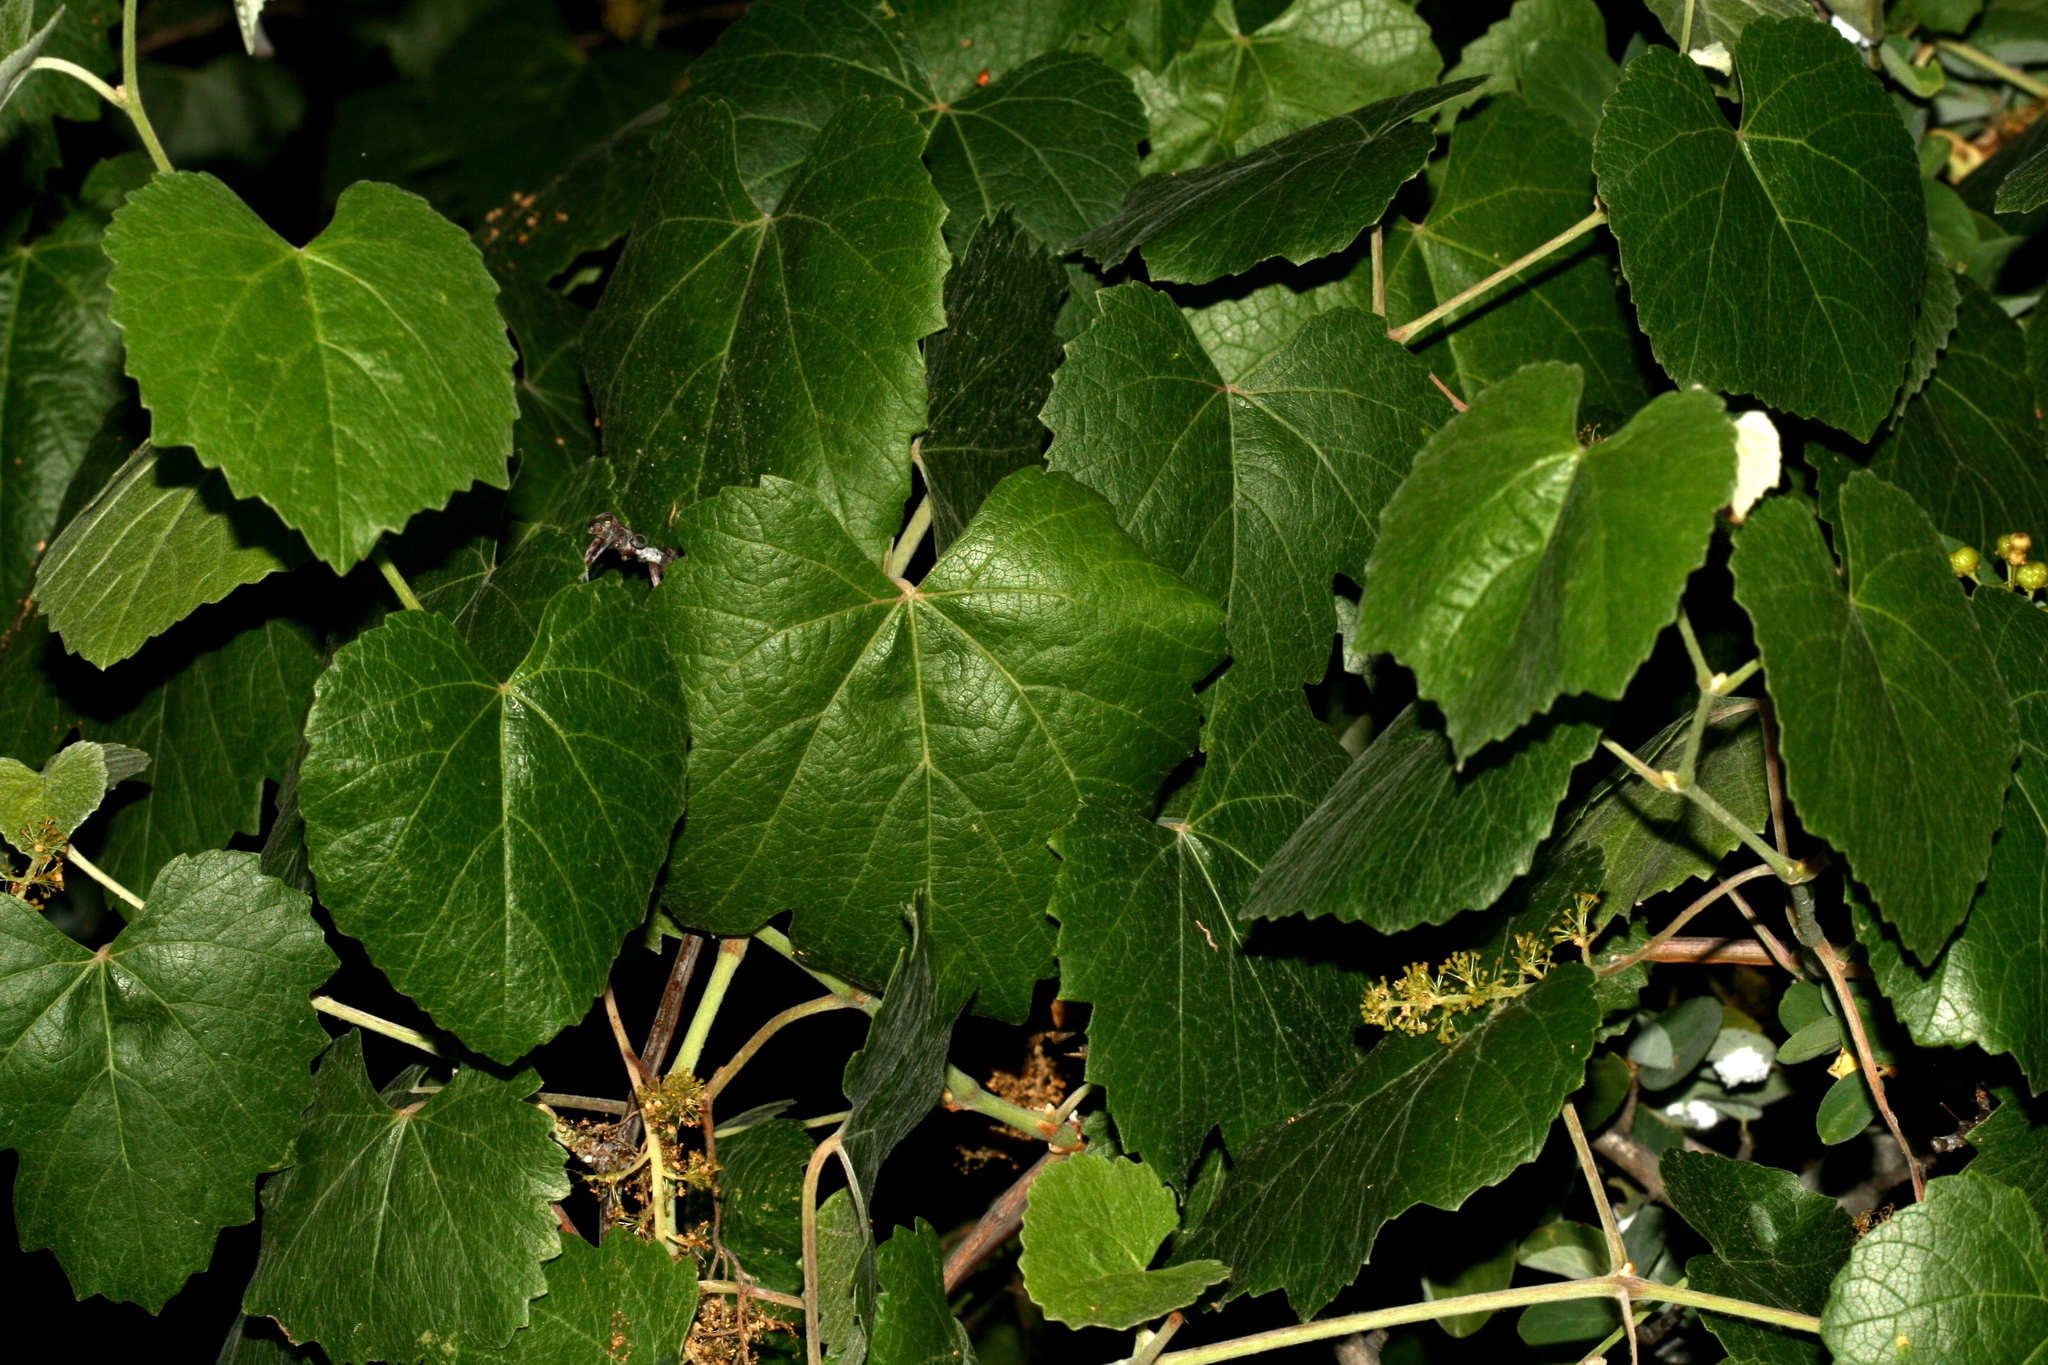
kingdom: Plantae
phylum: Tracheophyta
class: Magnoliopsida
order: Vitales
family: Vitaceae
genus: Vitis
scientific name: Vitis californica
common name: California wild grape
